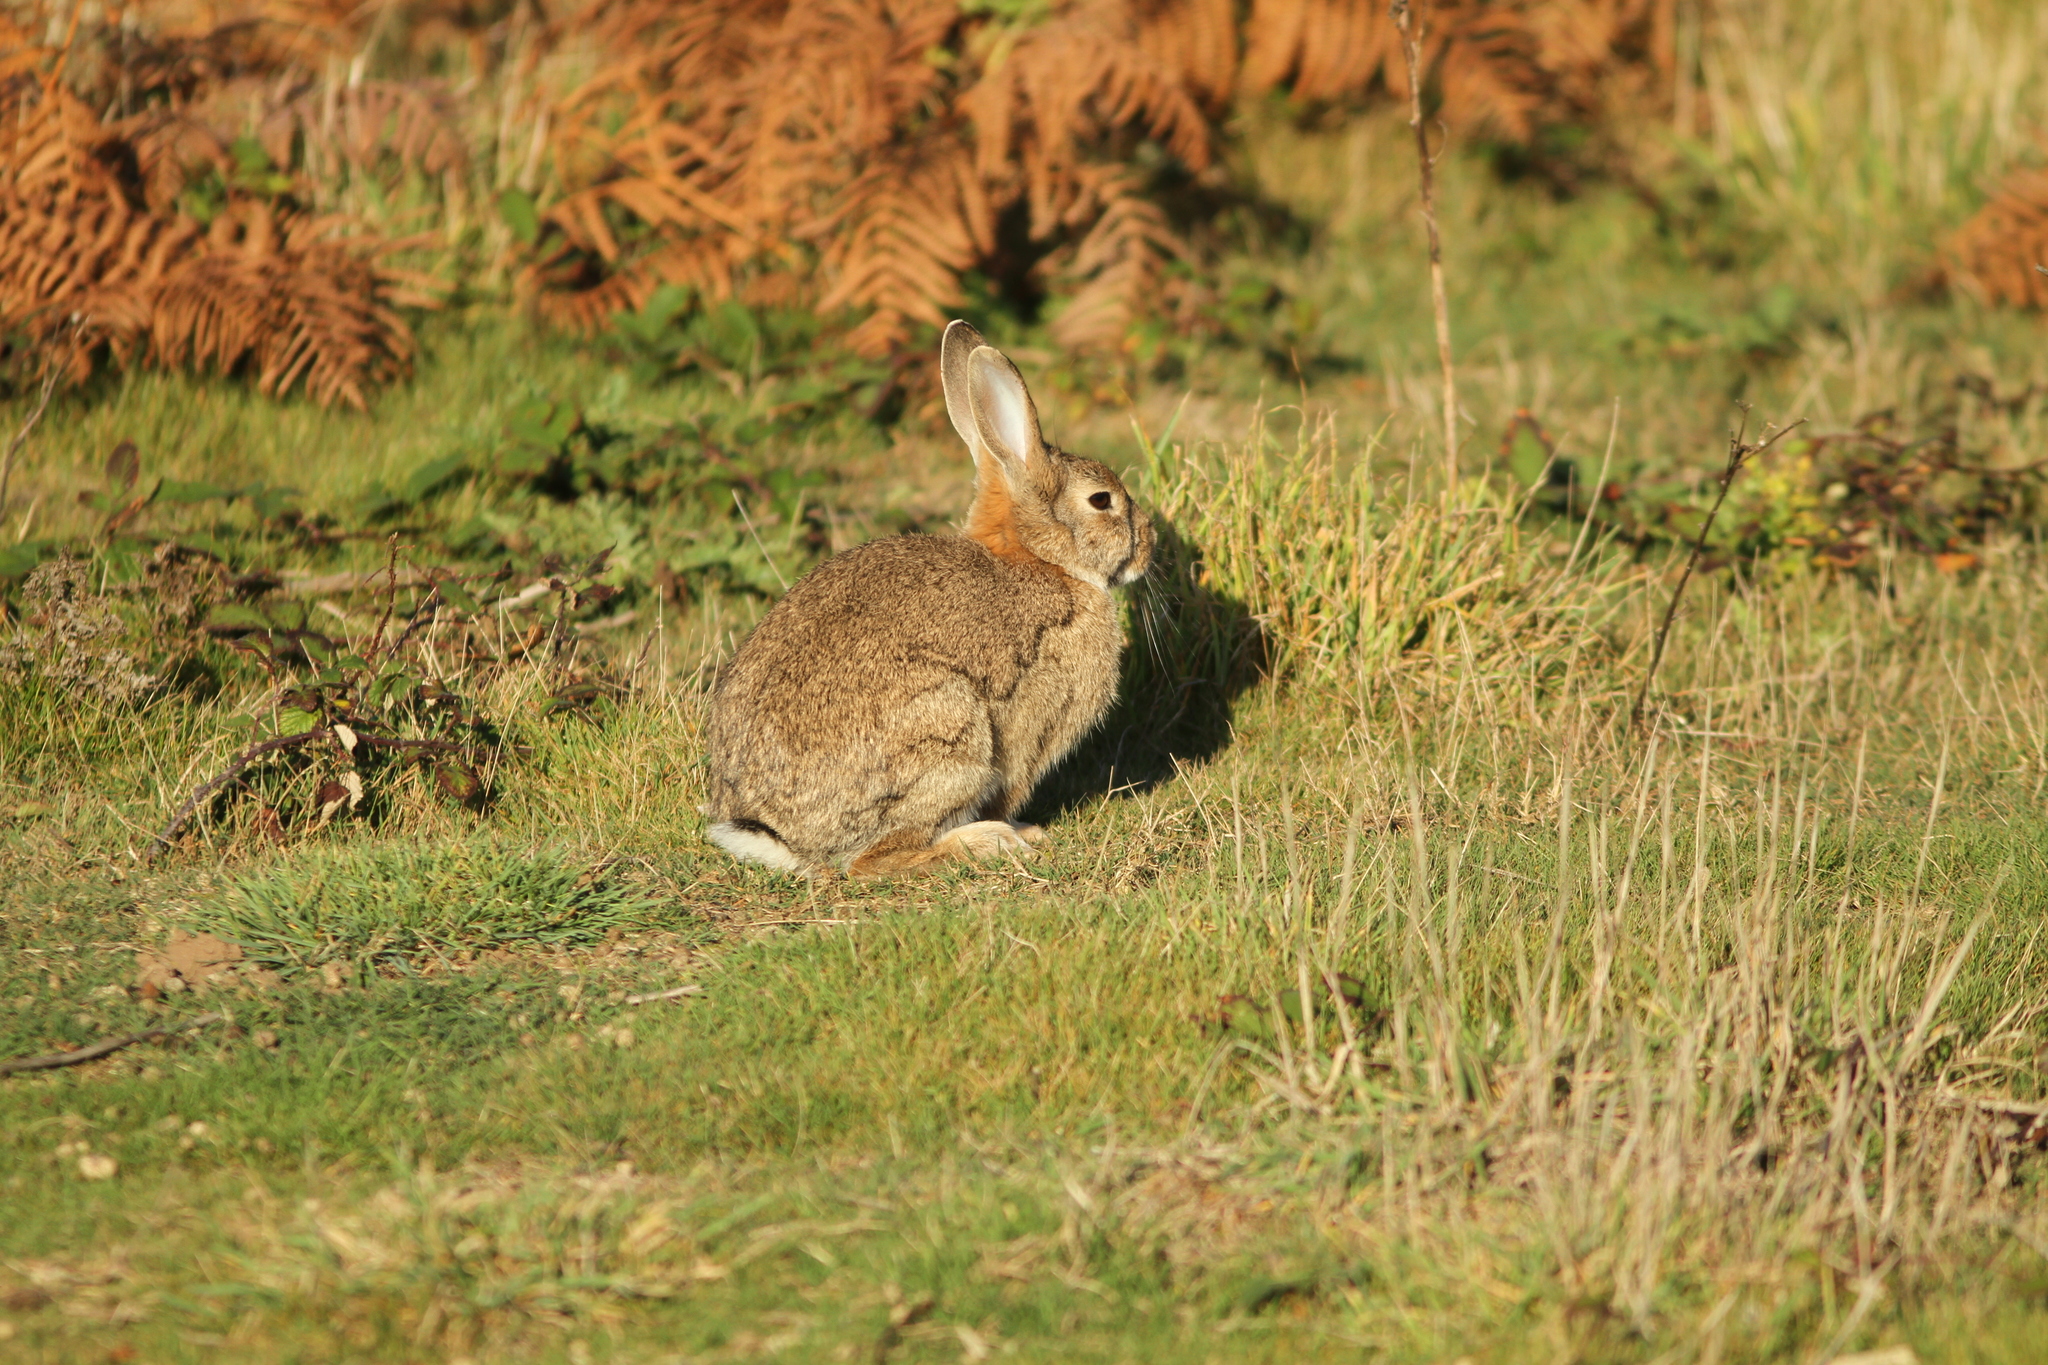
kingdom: Animalia
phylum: Chordata
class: Mammalia
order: Lagomorpha
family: Leporidae
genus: Oryctolagus
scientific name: Oryctolagus cuniculus
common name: European rabbit
